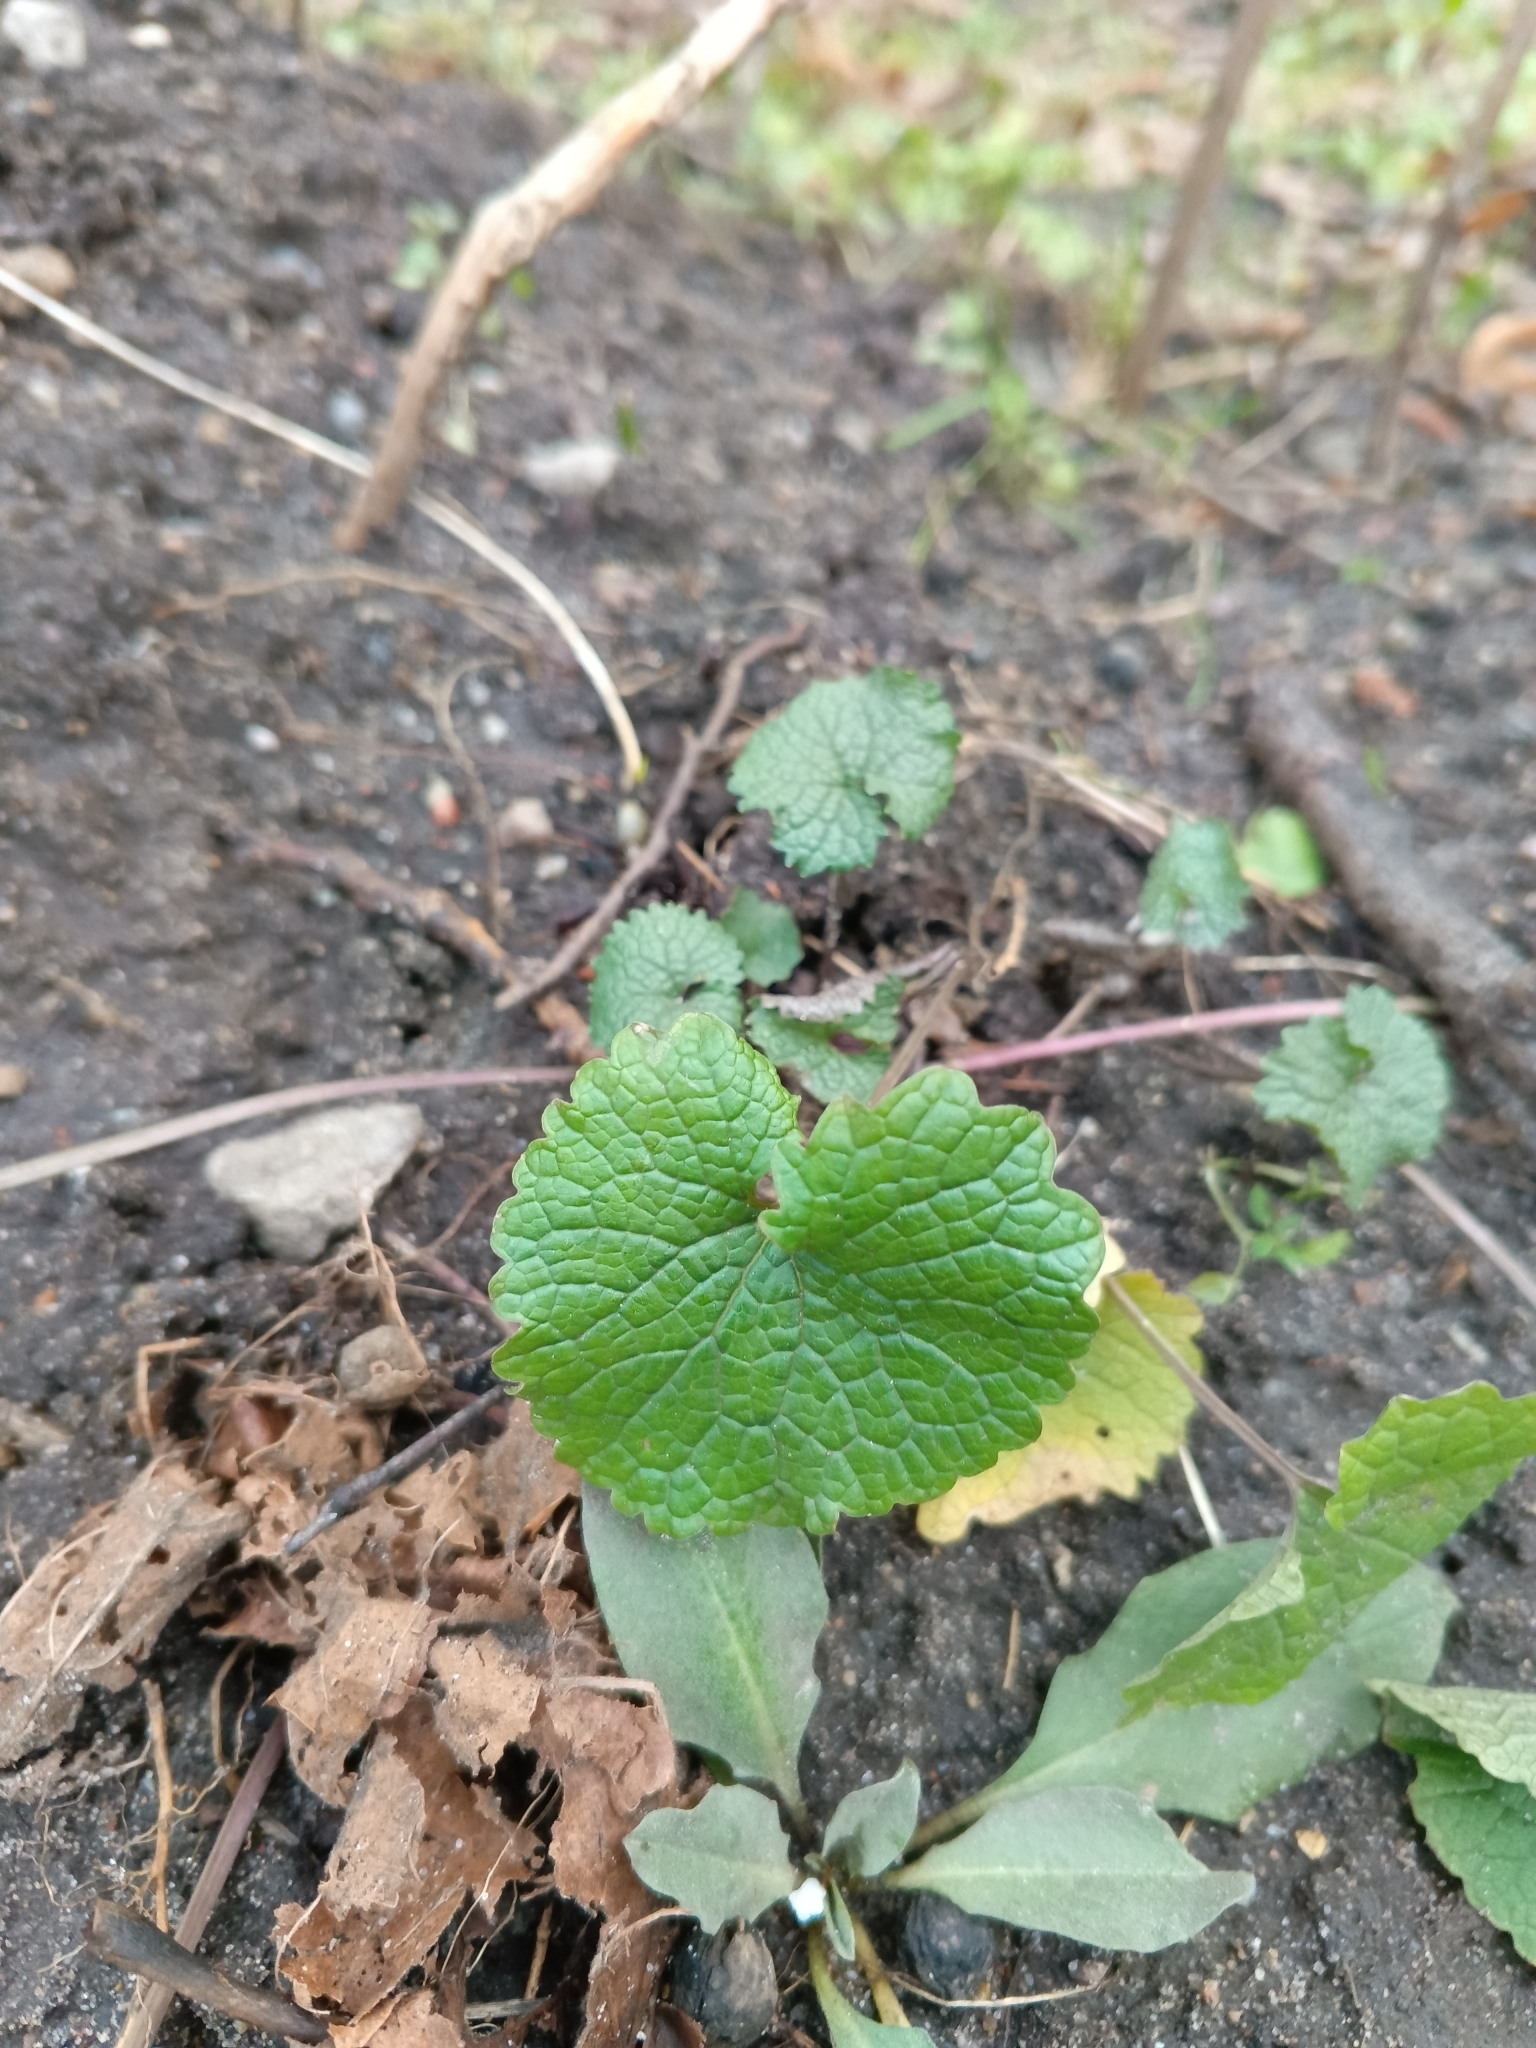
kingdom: Plantae
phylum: Tracheophyta
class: Magnoliopsida
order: Brassicales
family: Brassicaceae
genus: Alliaria
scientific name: Alliaria petiolata
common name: Garlic mustard
